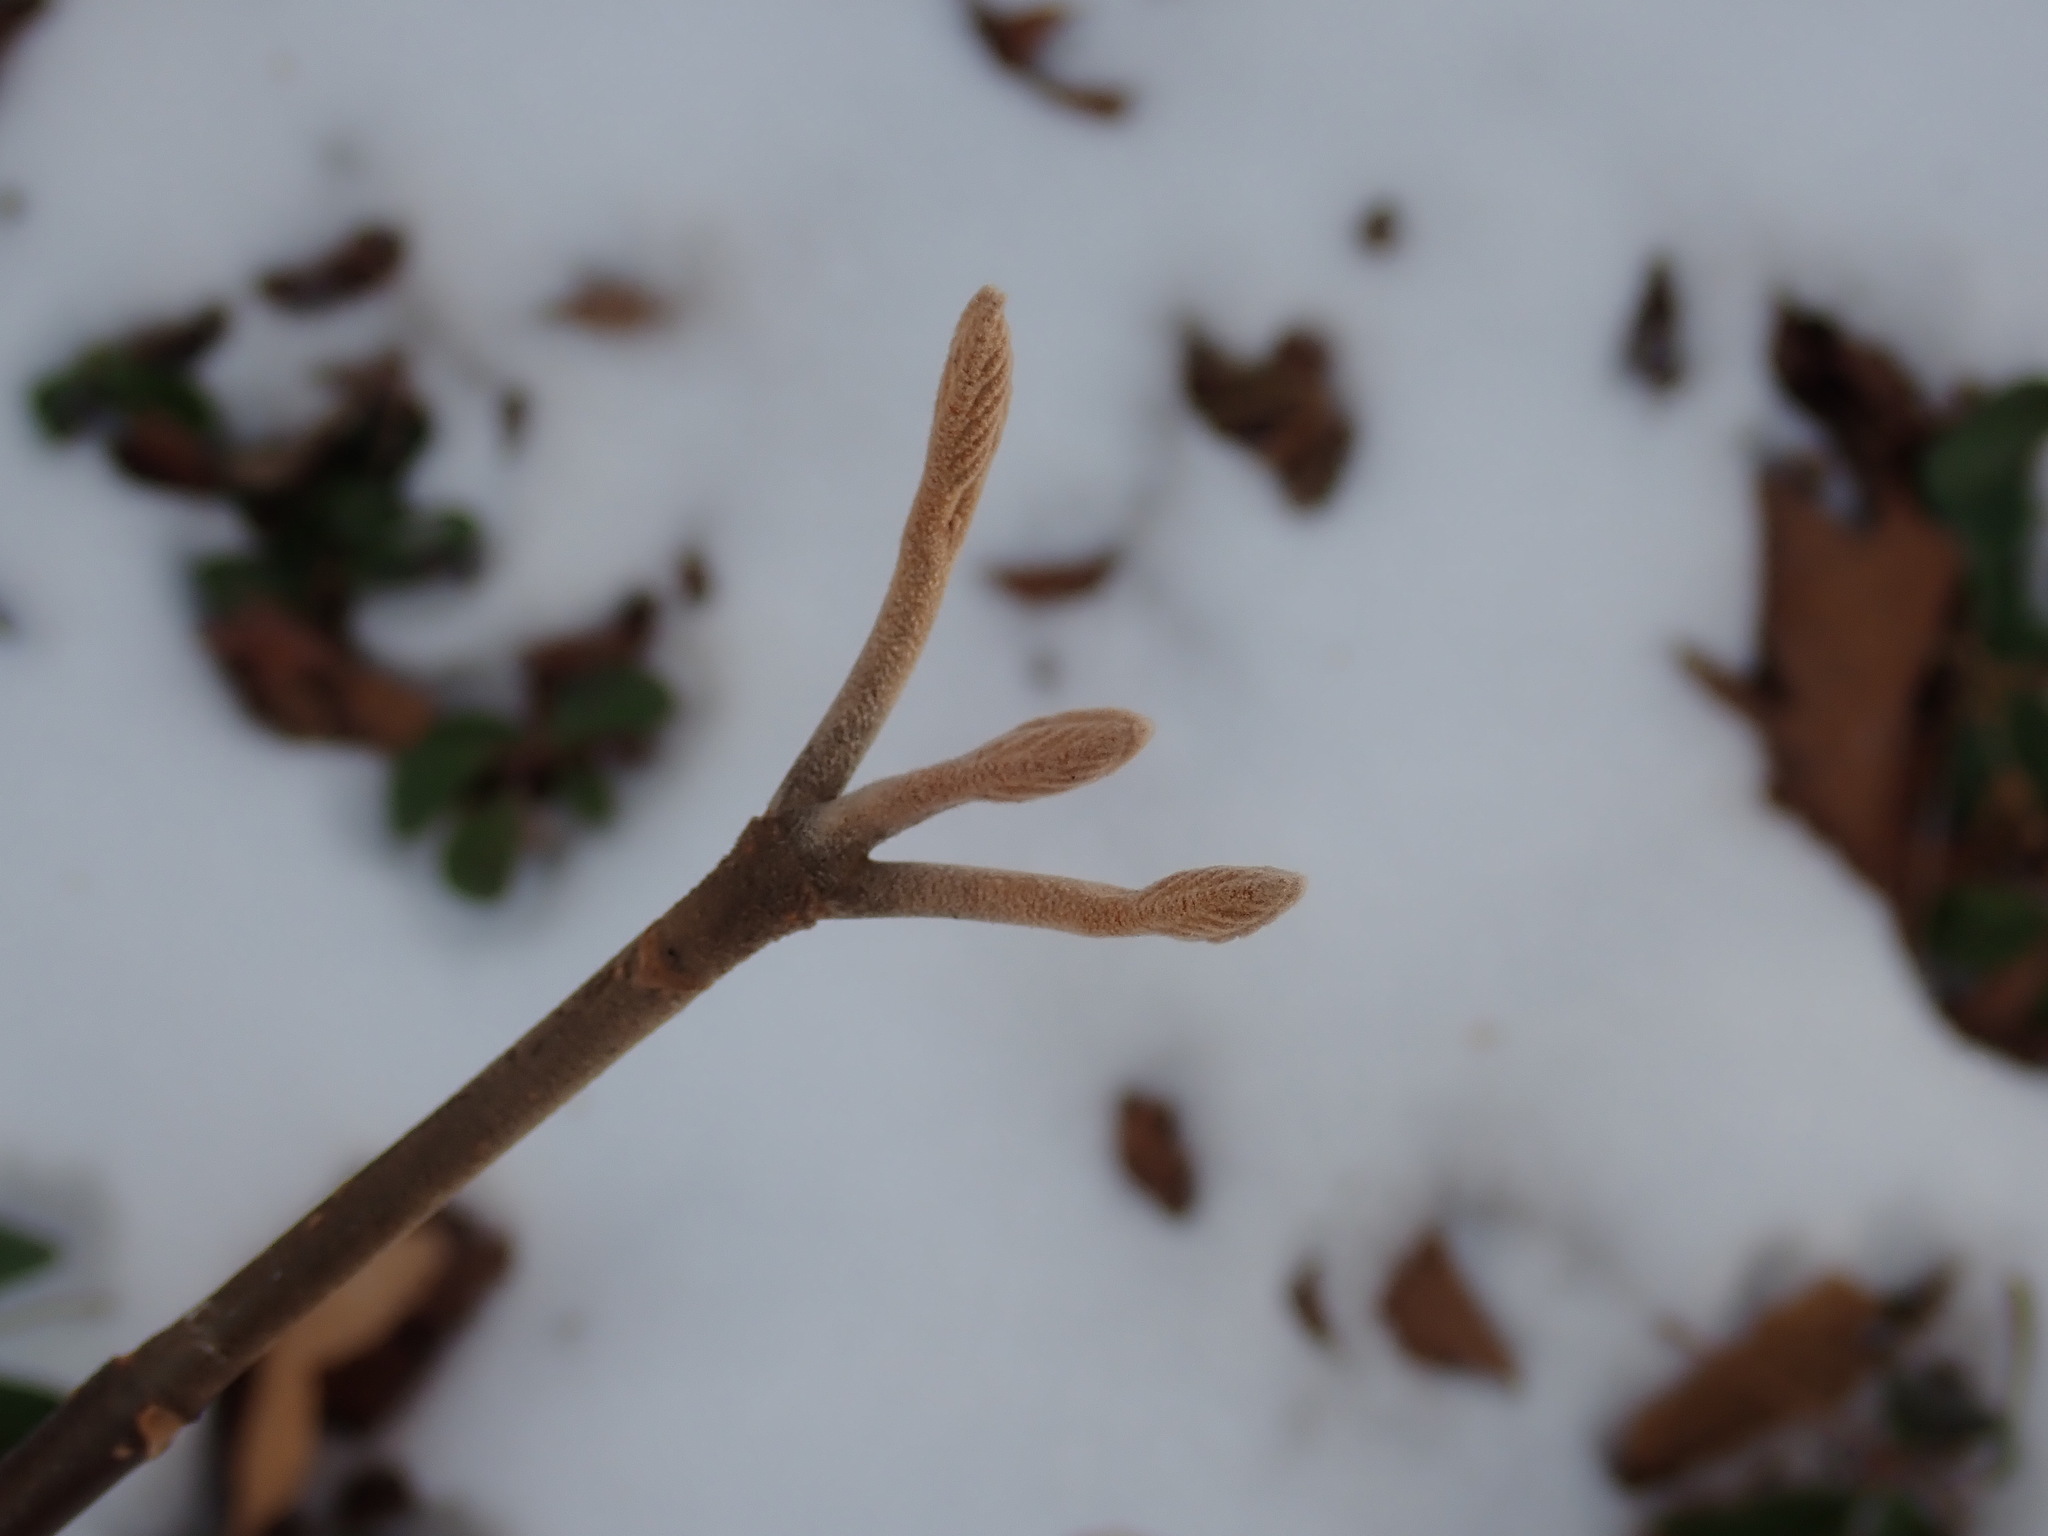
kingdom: Plantae
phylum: Tracheophyta
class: Magnoliopsida
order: Dipsacales
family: Viburnaceae
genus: Viburnum
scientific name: Viburnum lantanoides
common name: Hobblebush
